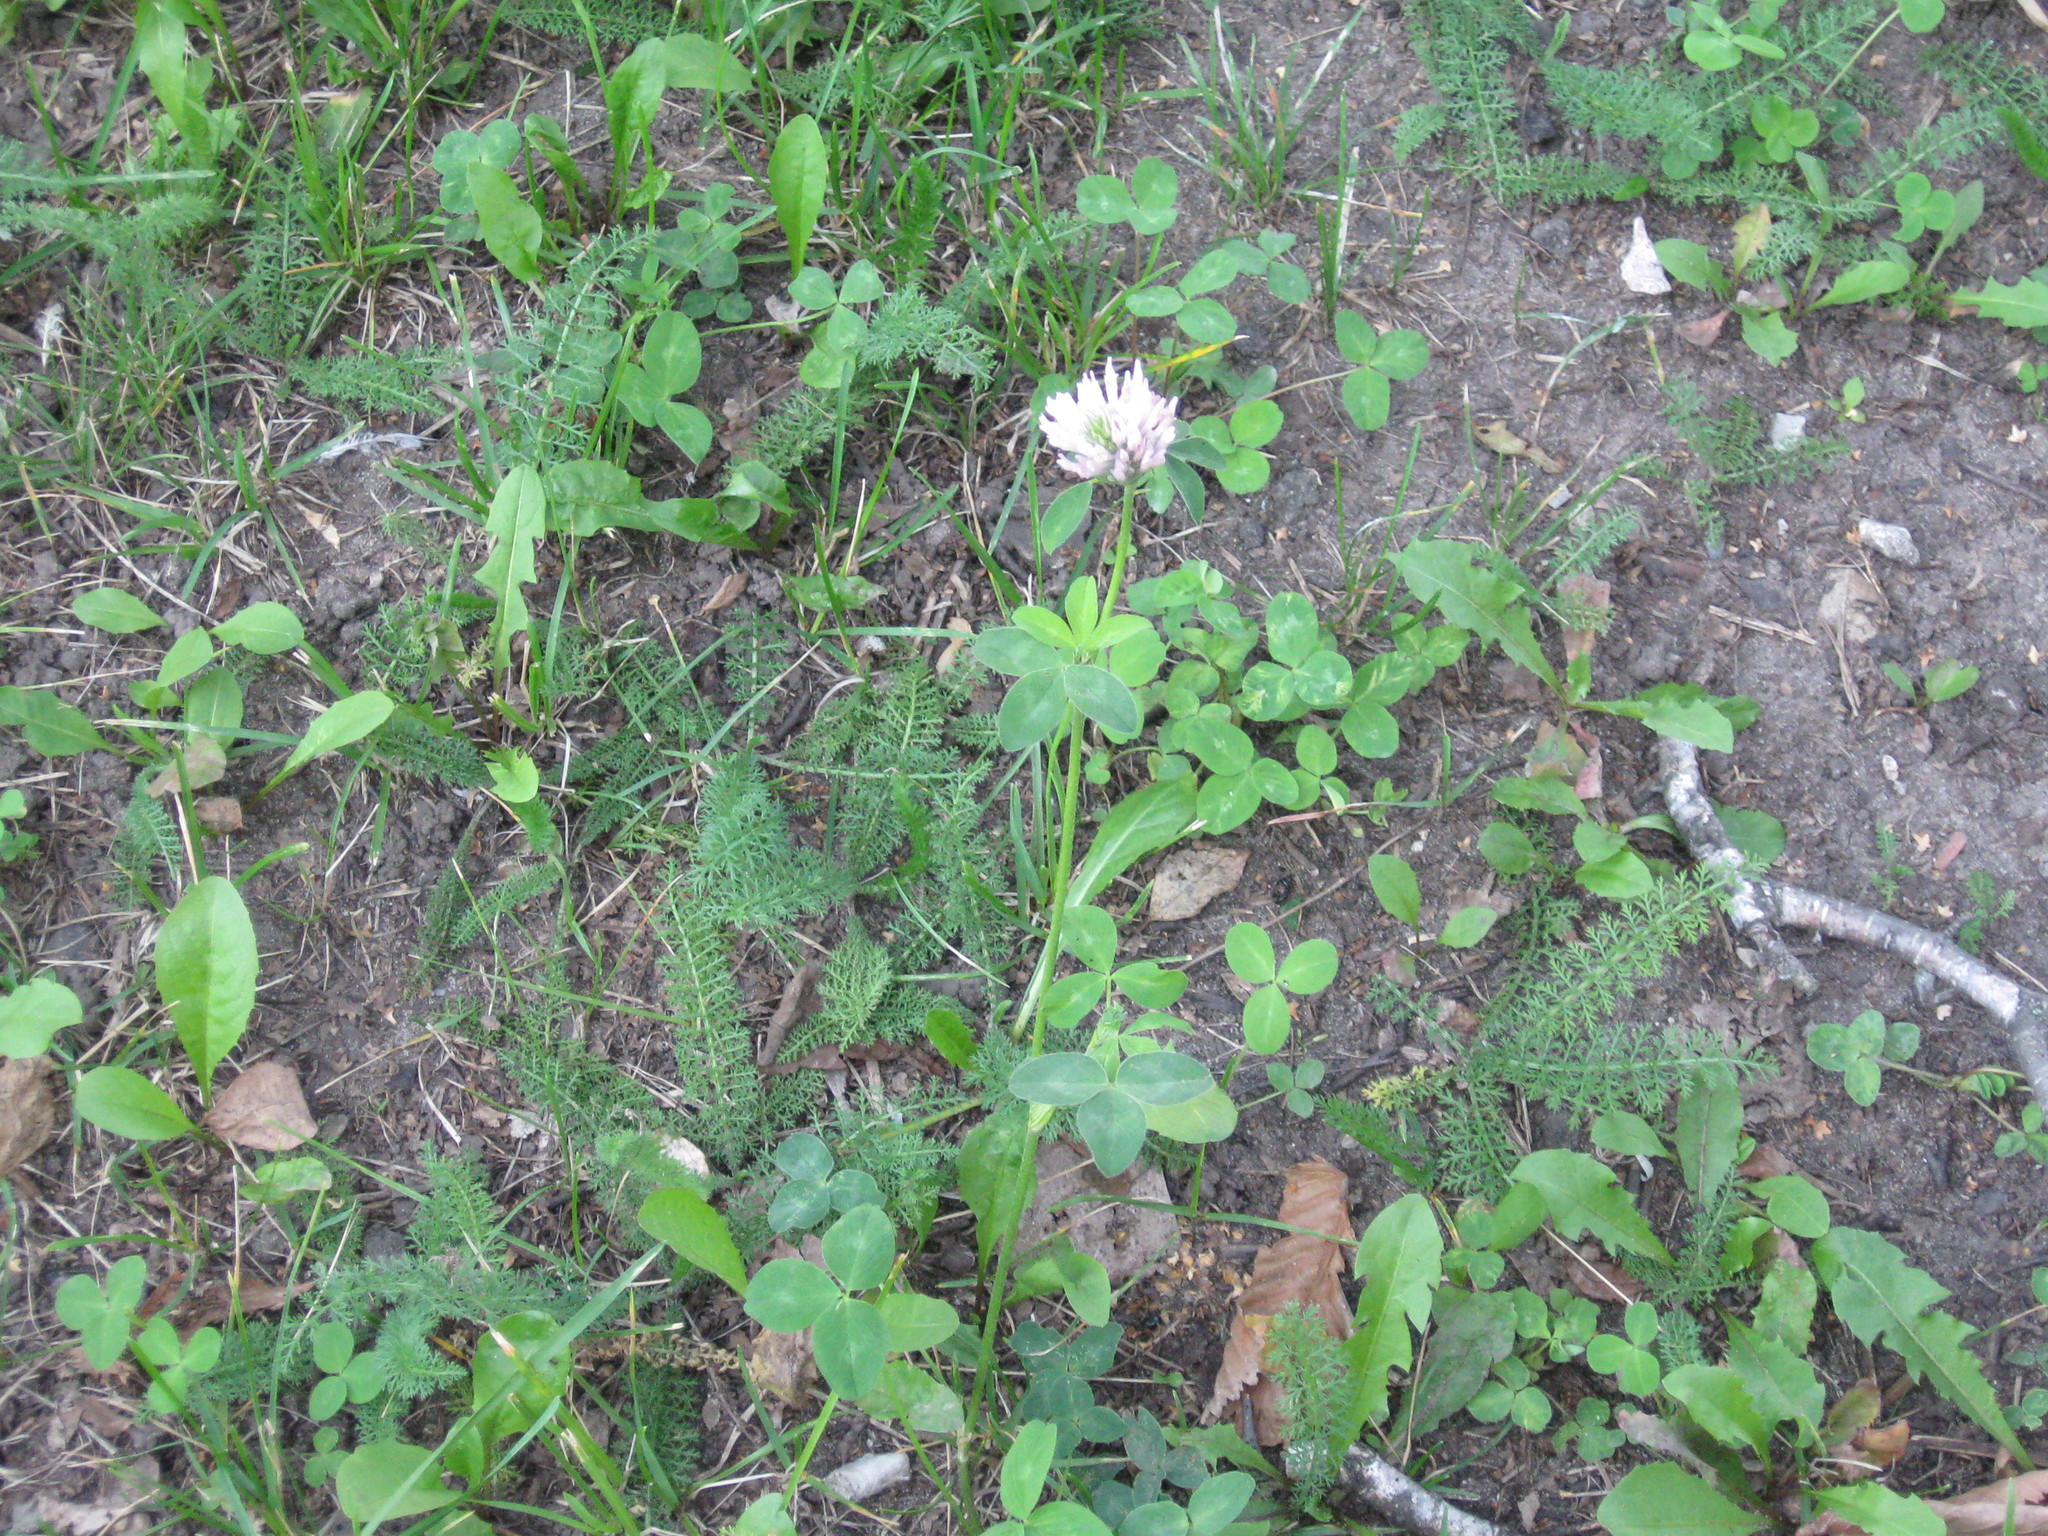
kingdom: Plantae
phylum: Tracheophyta
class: Magnoliopsida
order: Fabales
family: Fabaceae
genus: Trifolium
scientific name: Trifolium pratense
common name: Red clover
